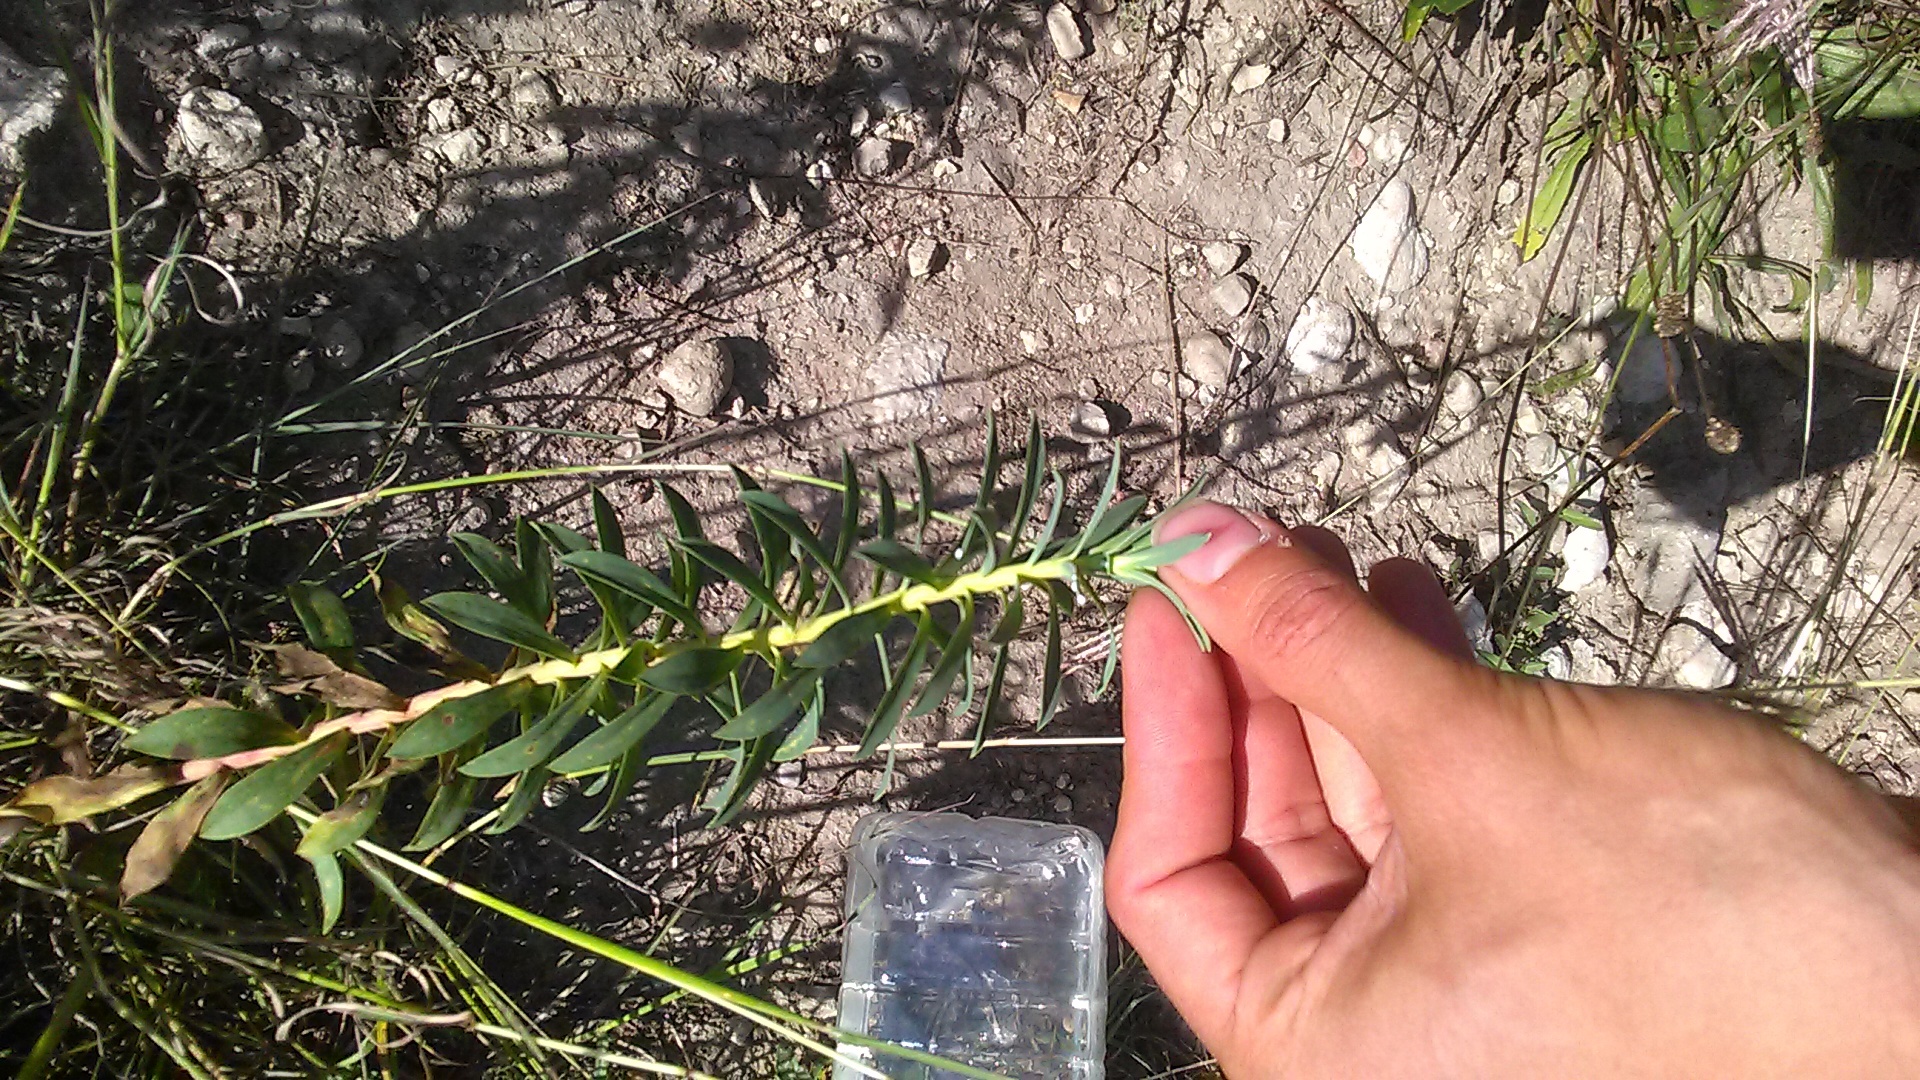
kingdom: Plantae
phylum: Tracheophyta
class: Magnoliopsida
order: Malpighiales
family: Euphorbiaceae
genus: Euphorbia
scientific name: Euphorbia stepposa
